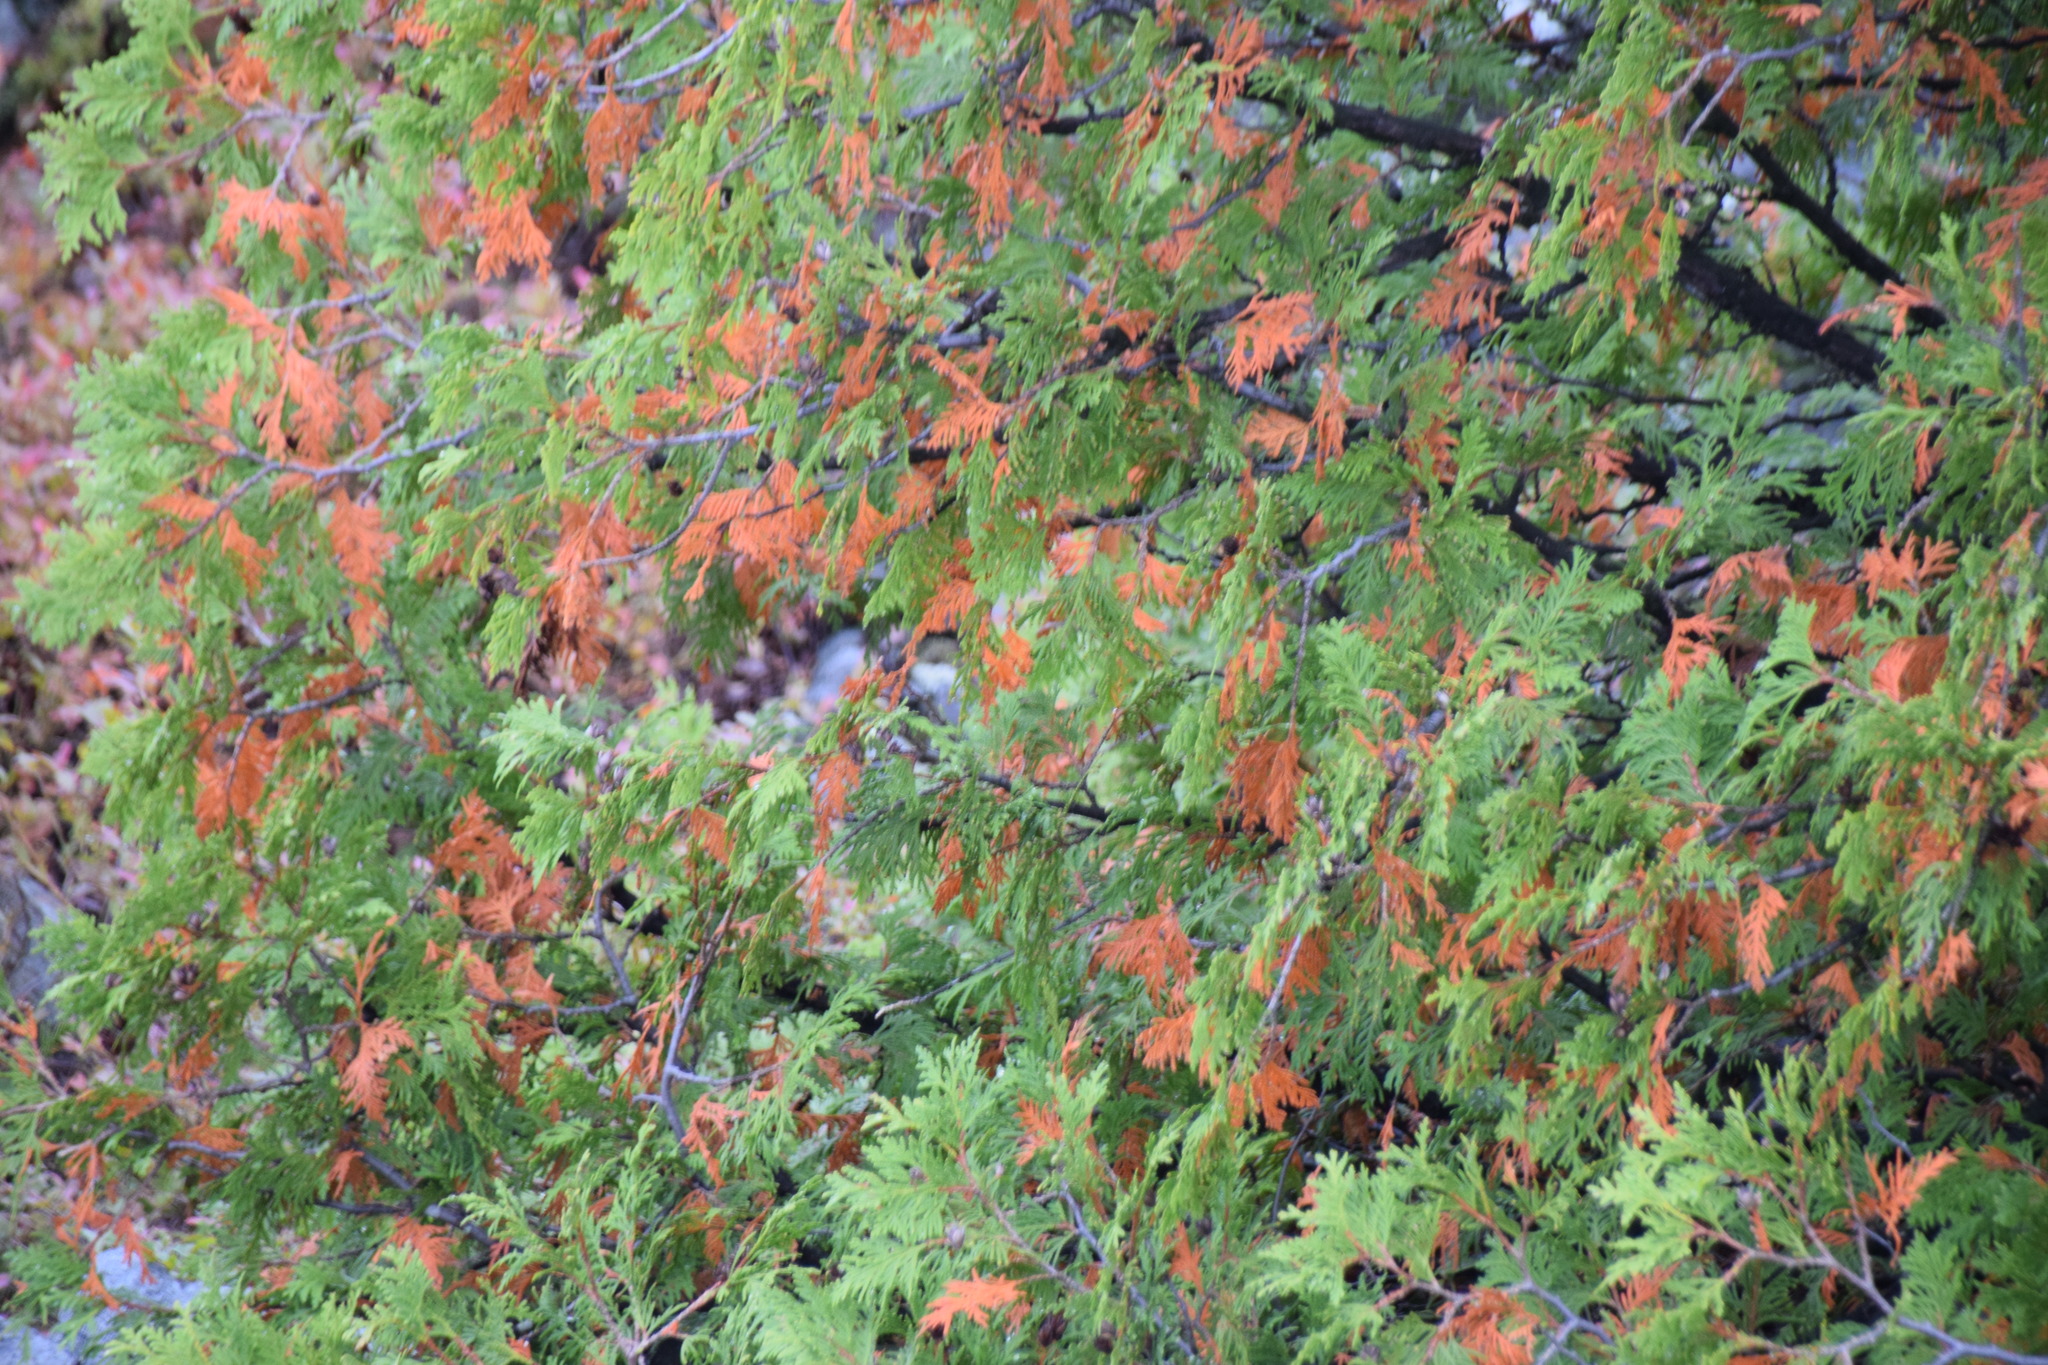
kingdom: Plantae
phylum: Tracheophyta
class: Pinopsida
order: Pinales
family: Cupressaceae
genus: Thuja
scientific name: Thuja occidentalis
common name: Northern white-cedar
